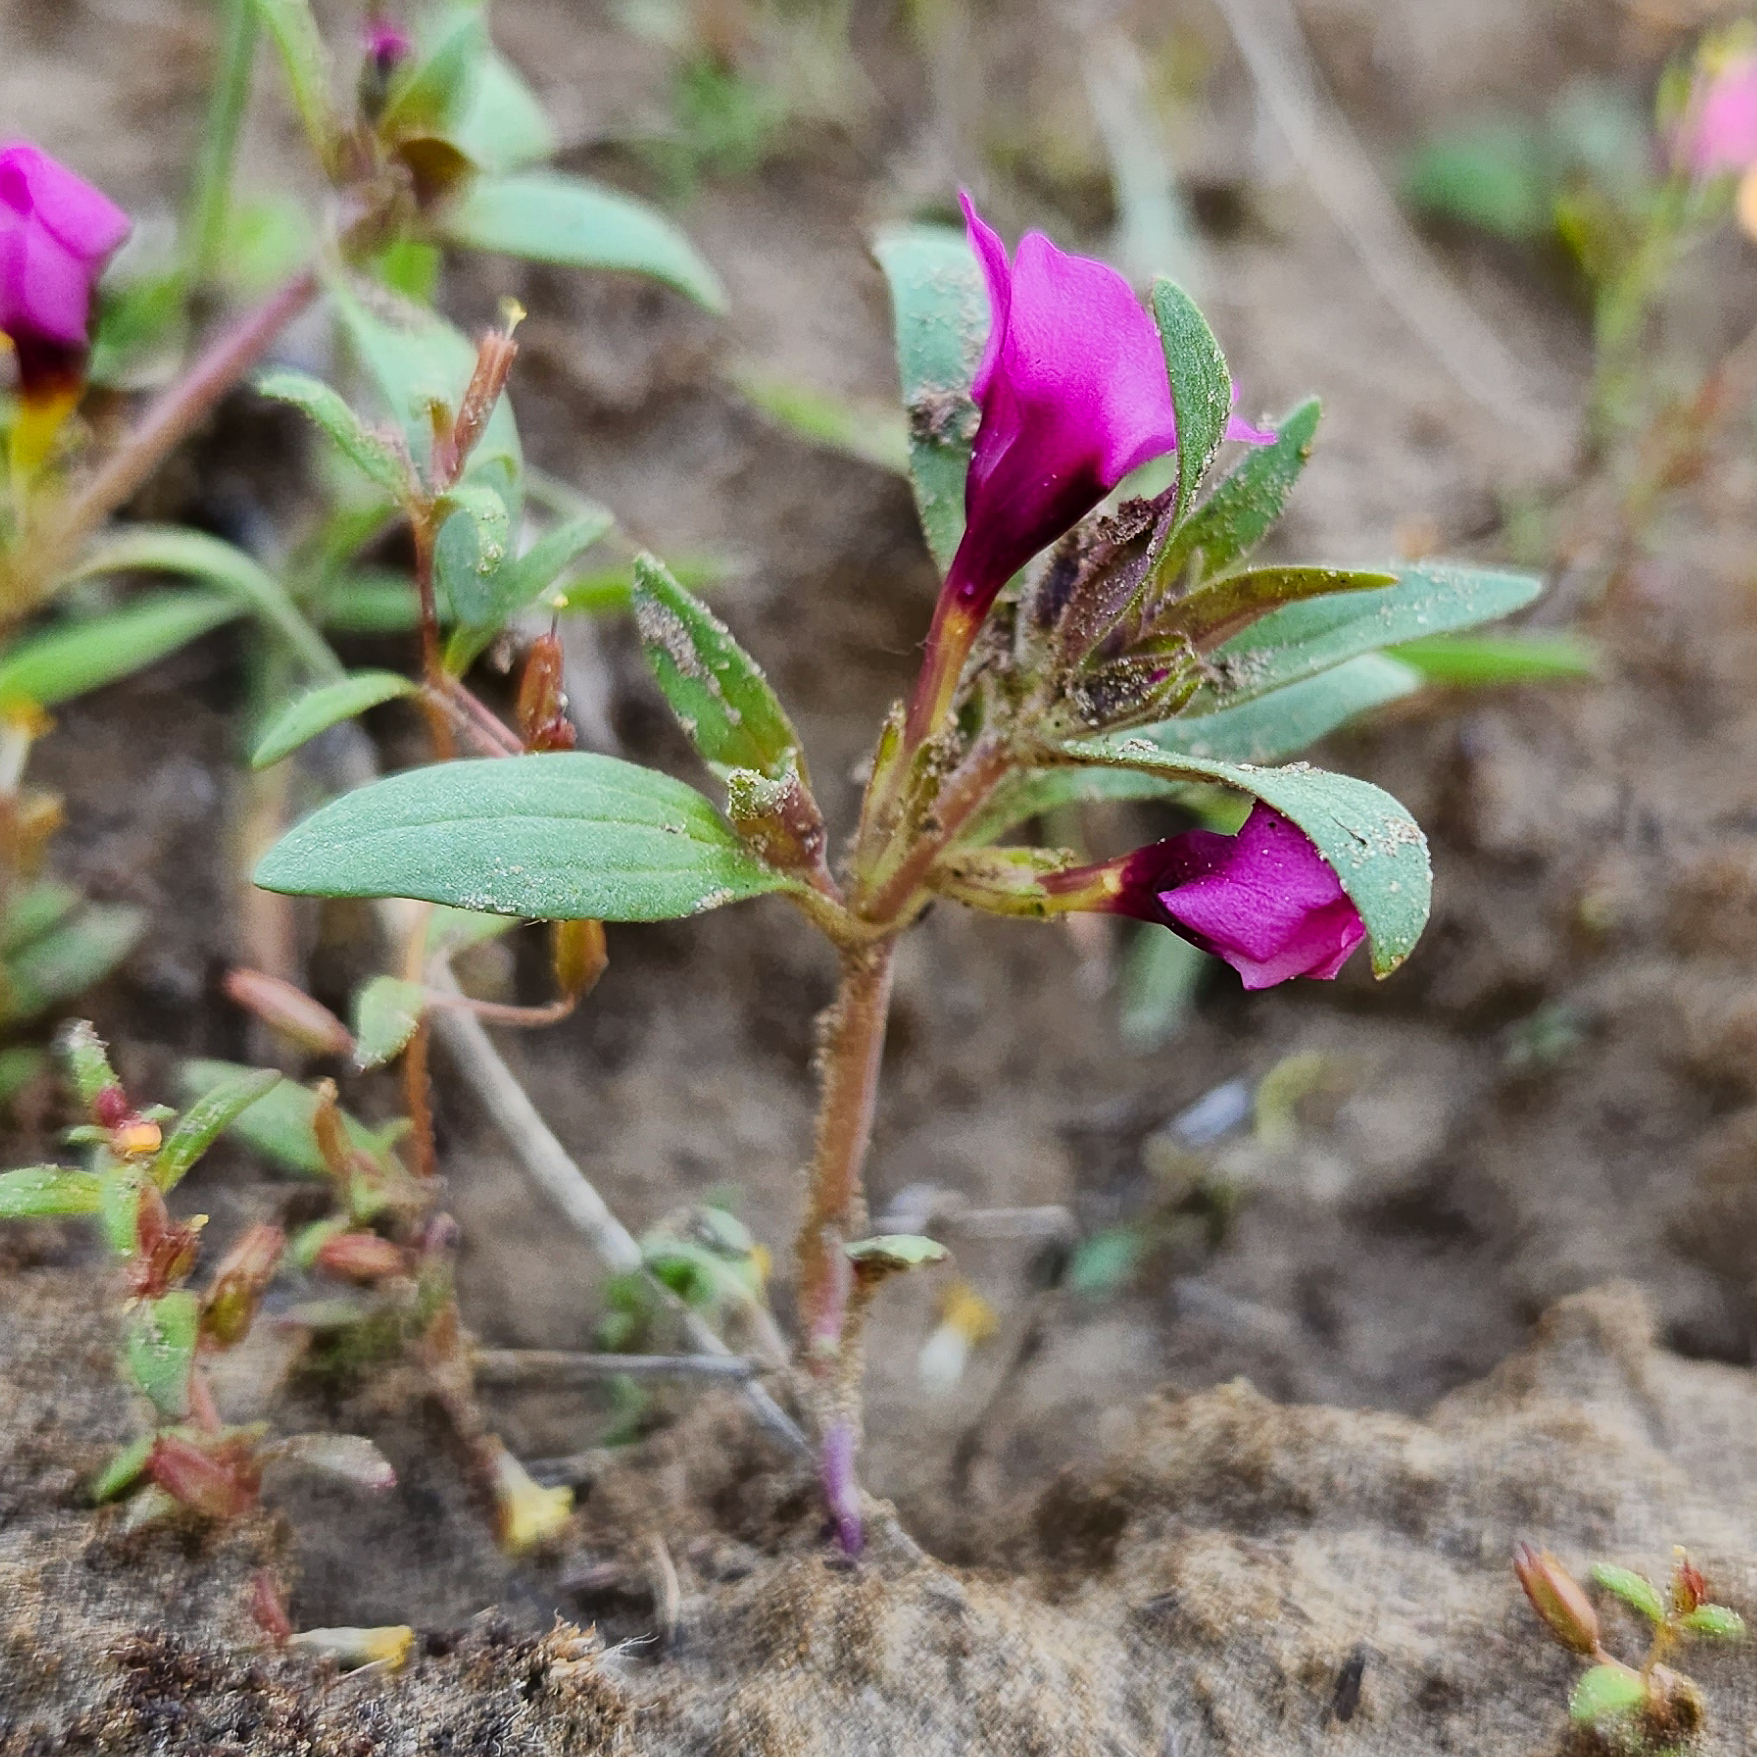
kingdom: Plantae
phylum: Tracheophyta
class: Magnoliopsida
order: Lamiales
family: Phrymaceae
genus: Diplacus
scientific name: Diplacus nanus
